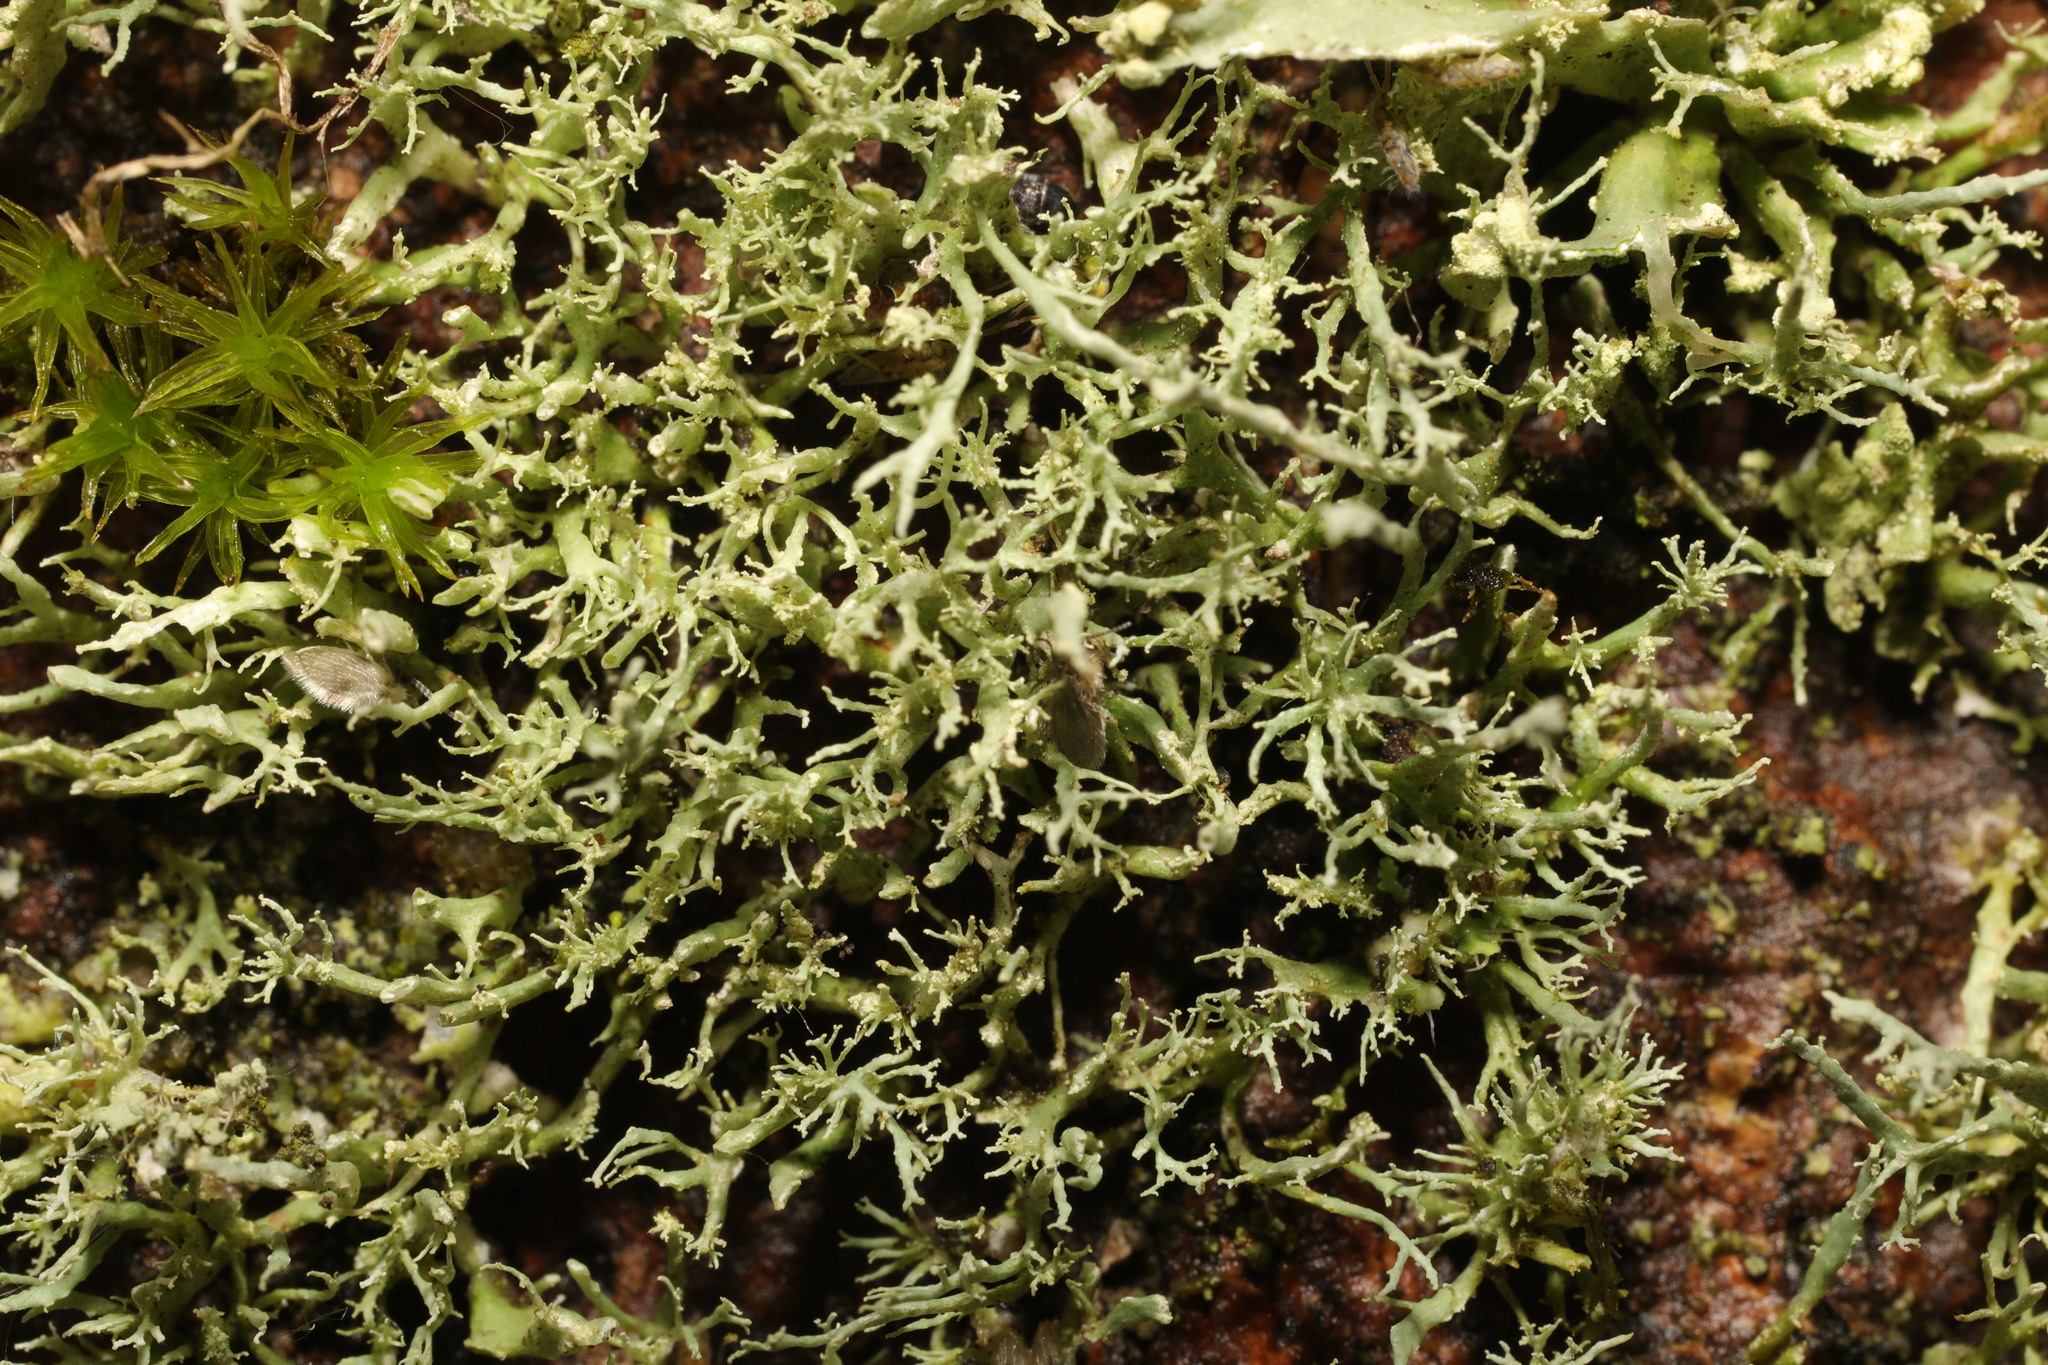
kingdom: Fungi
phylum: Ascomycota
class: Lecanoromycetes
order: Lecanorales
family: Ramalinaceae
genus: Ramalina
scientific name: Ramalina
